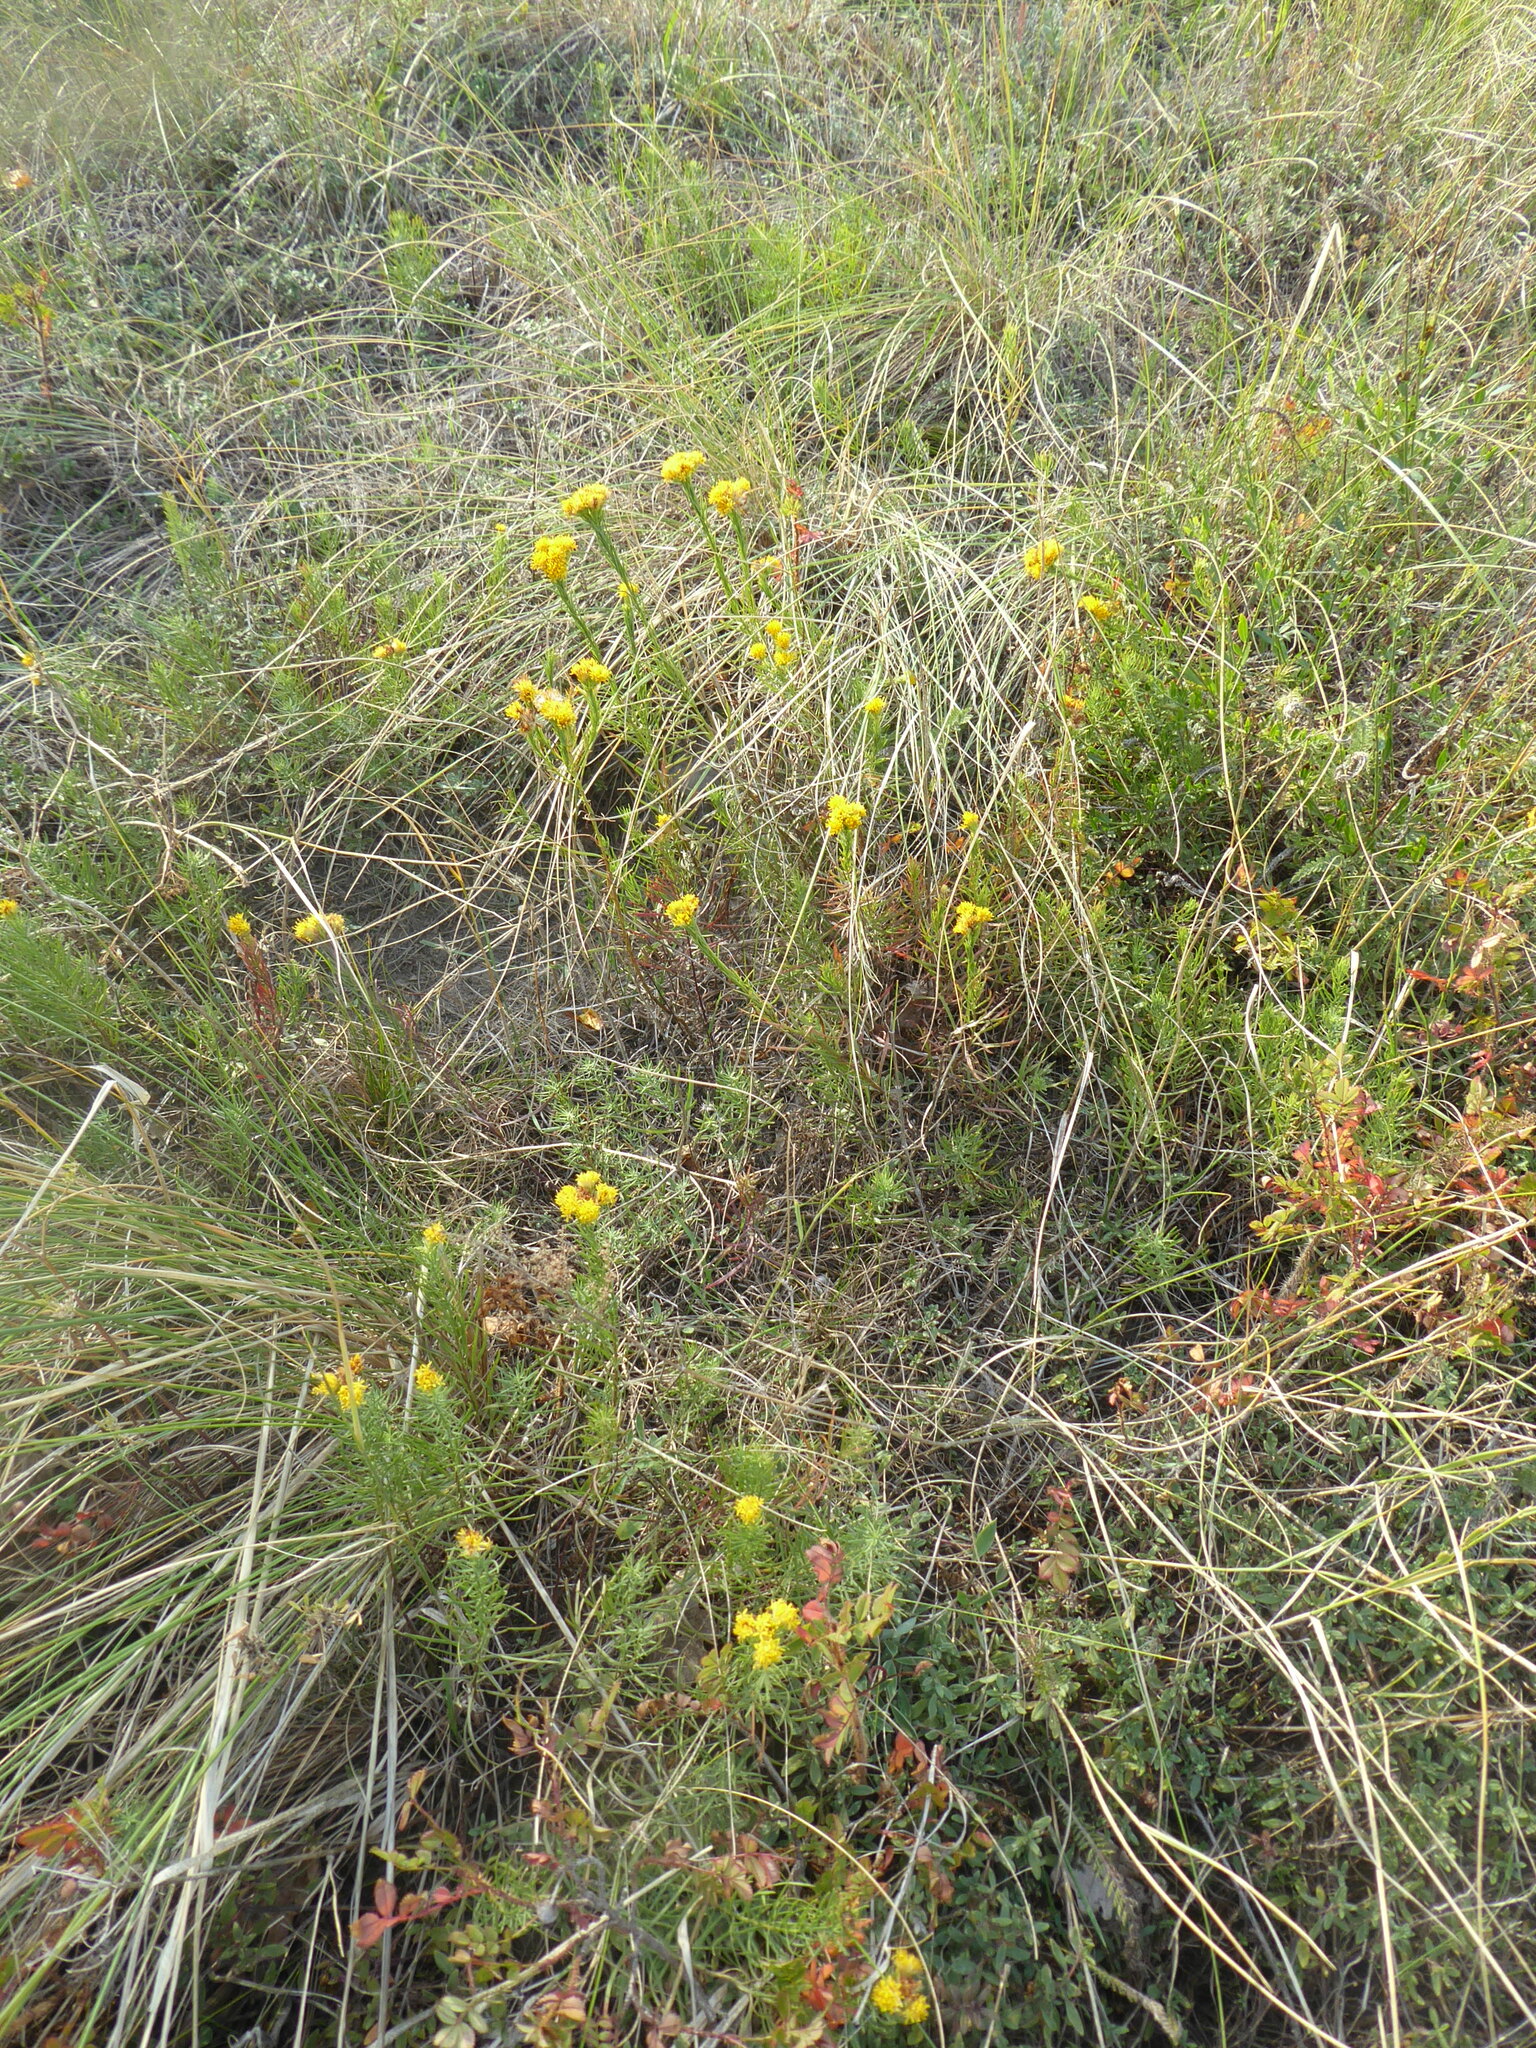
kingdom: Plantae
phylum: Tracheophyta
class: Magnoliopsida
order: Asterales
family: Asteraceae
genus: Galatella
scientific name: Galatella linosyris
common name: Goldilocks aster
